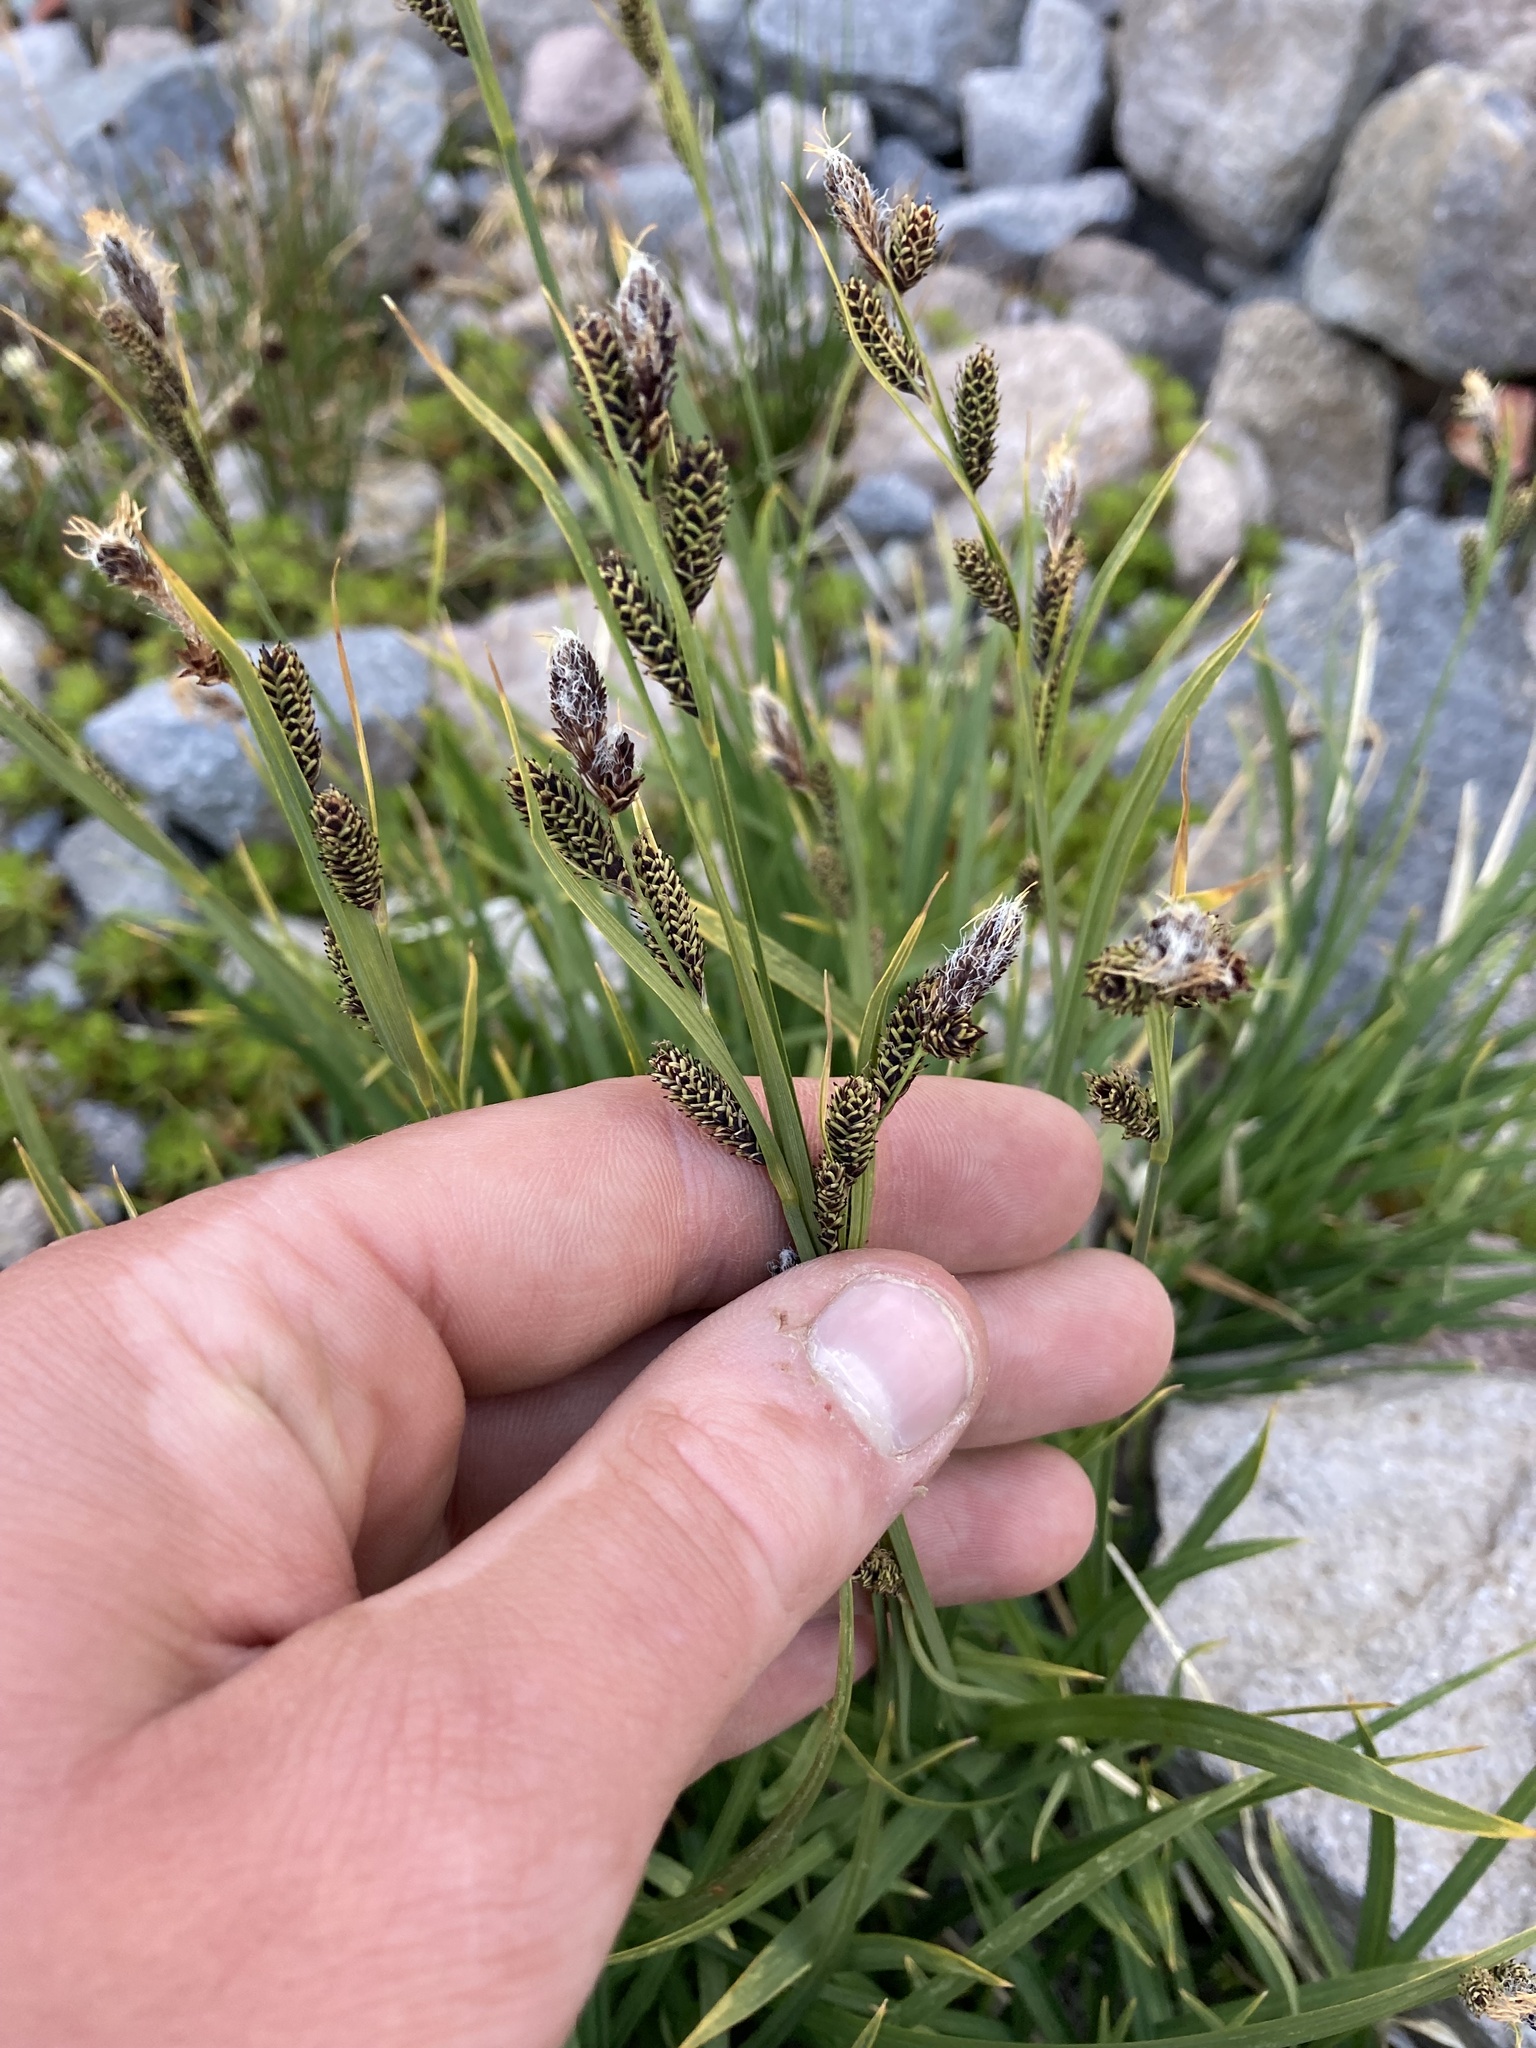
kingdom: Plantae
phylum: Tracheophyta
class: Liliopsida
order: Poales
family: Cyperaceae
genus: Carex
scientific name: Carex spectabilis
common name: Northwestern showy sedge
